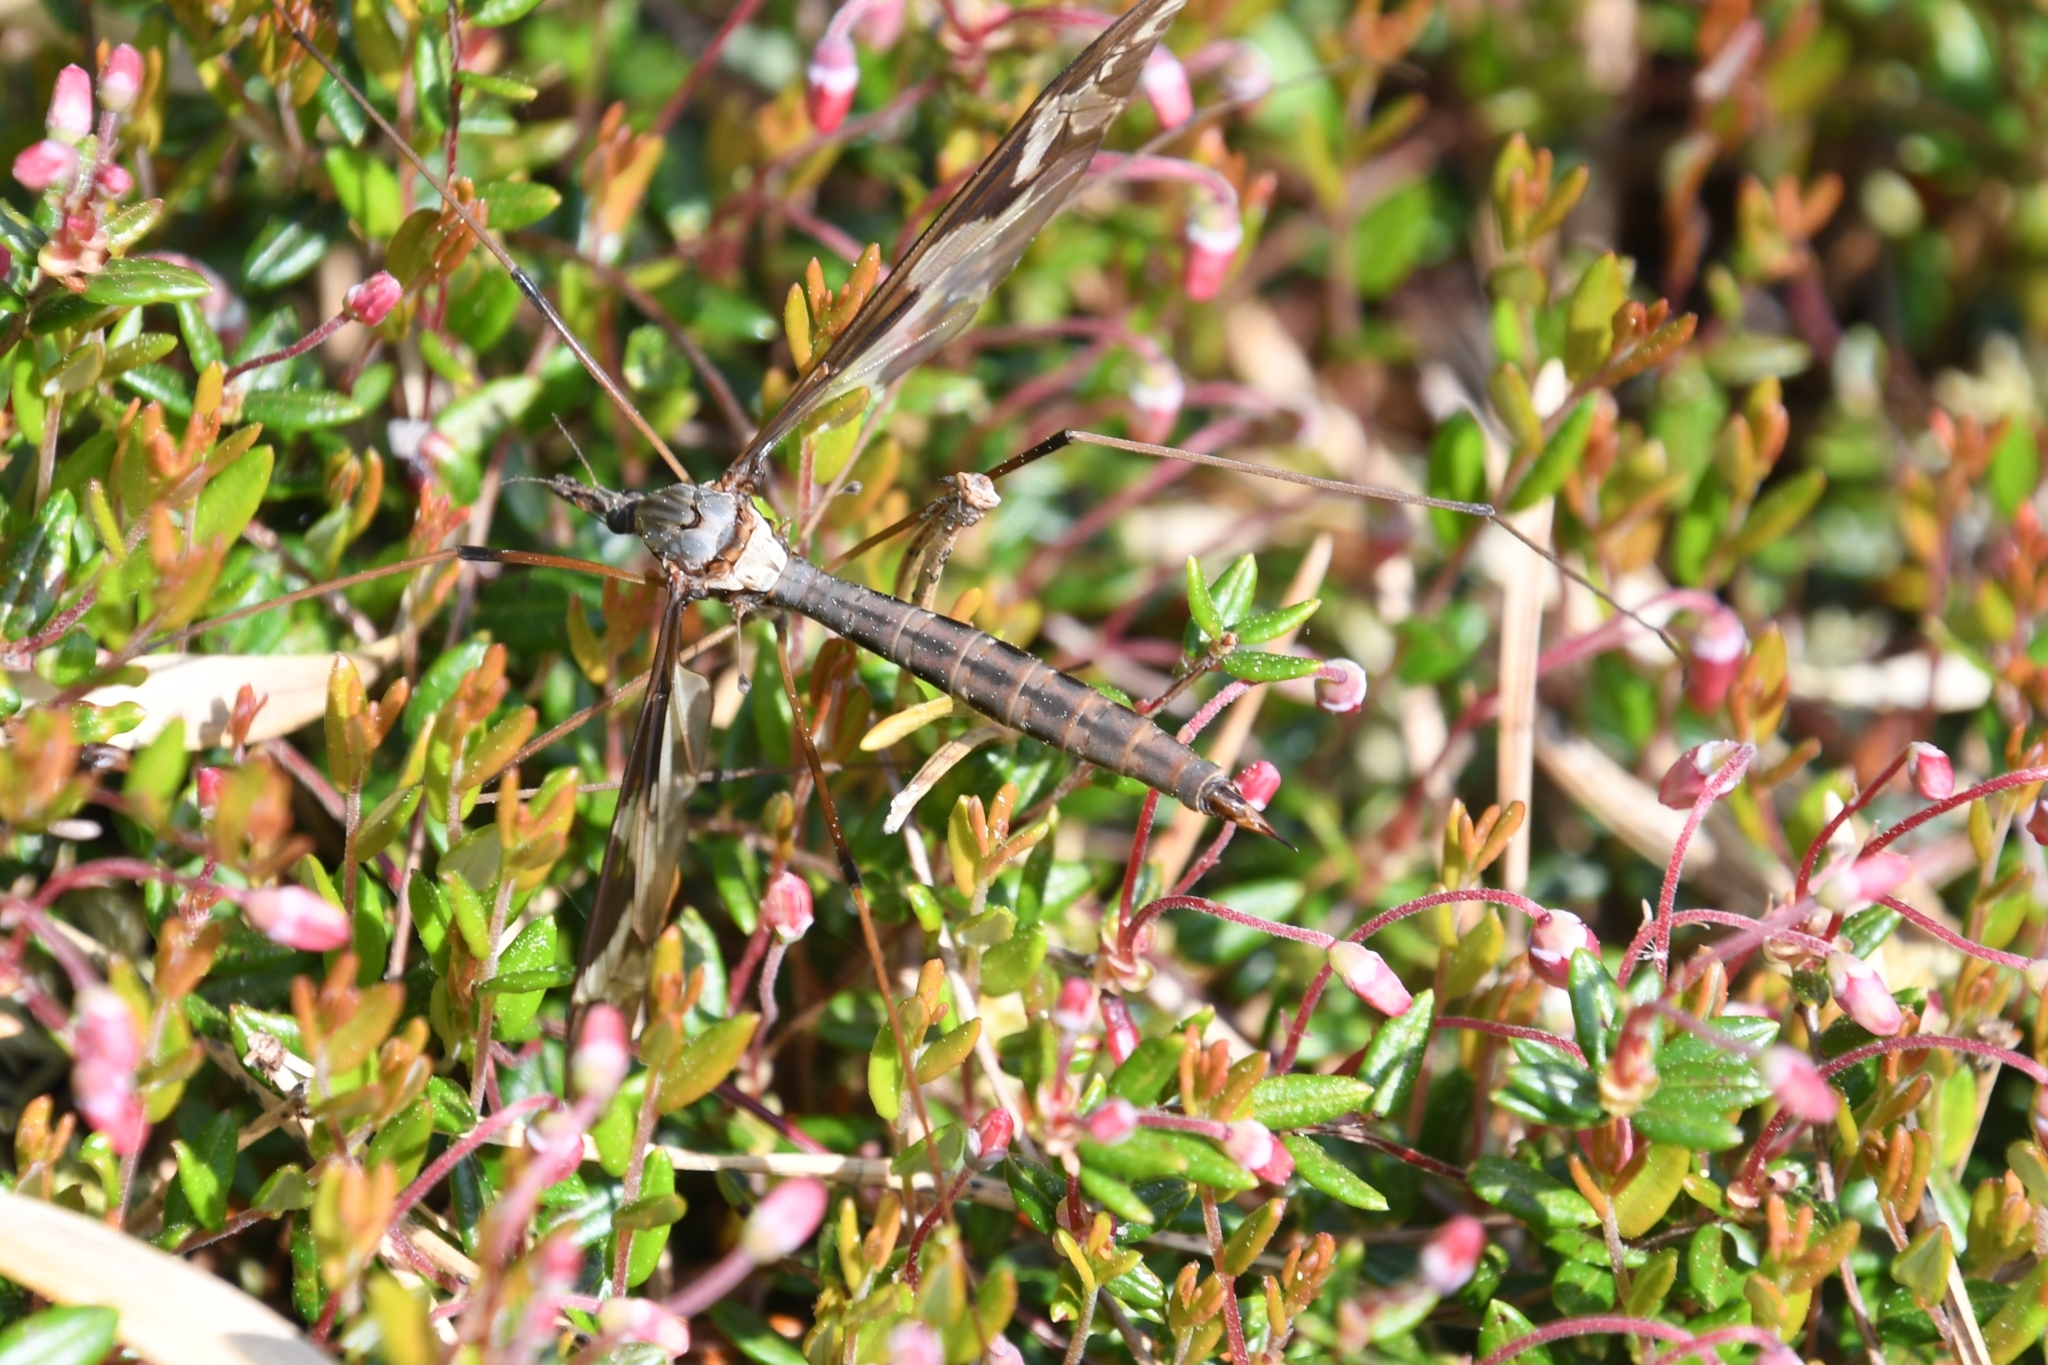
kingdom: Animalia
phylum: Arthropoda
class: Insecta
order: Diptera
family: Tipulidae
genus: Tipula
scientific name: Tipula maxima
